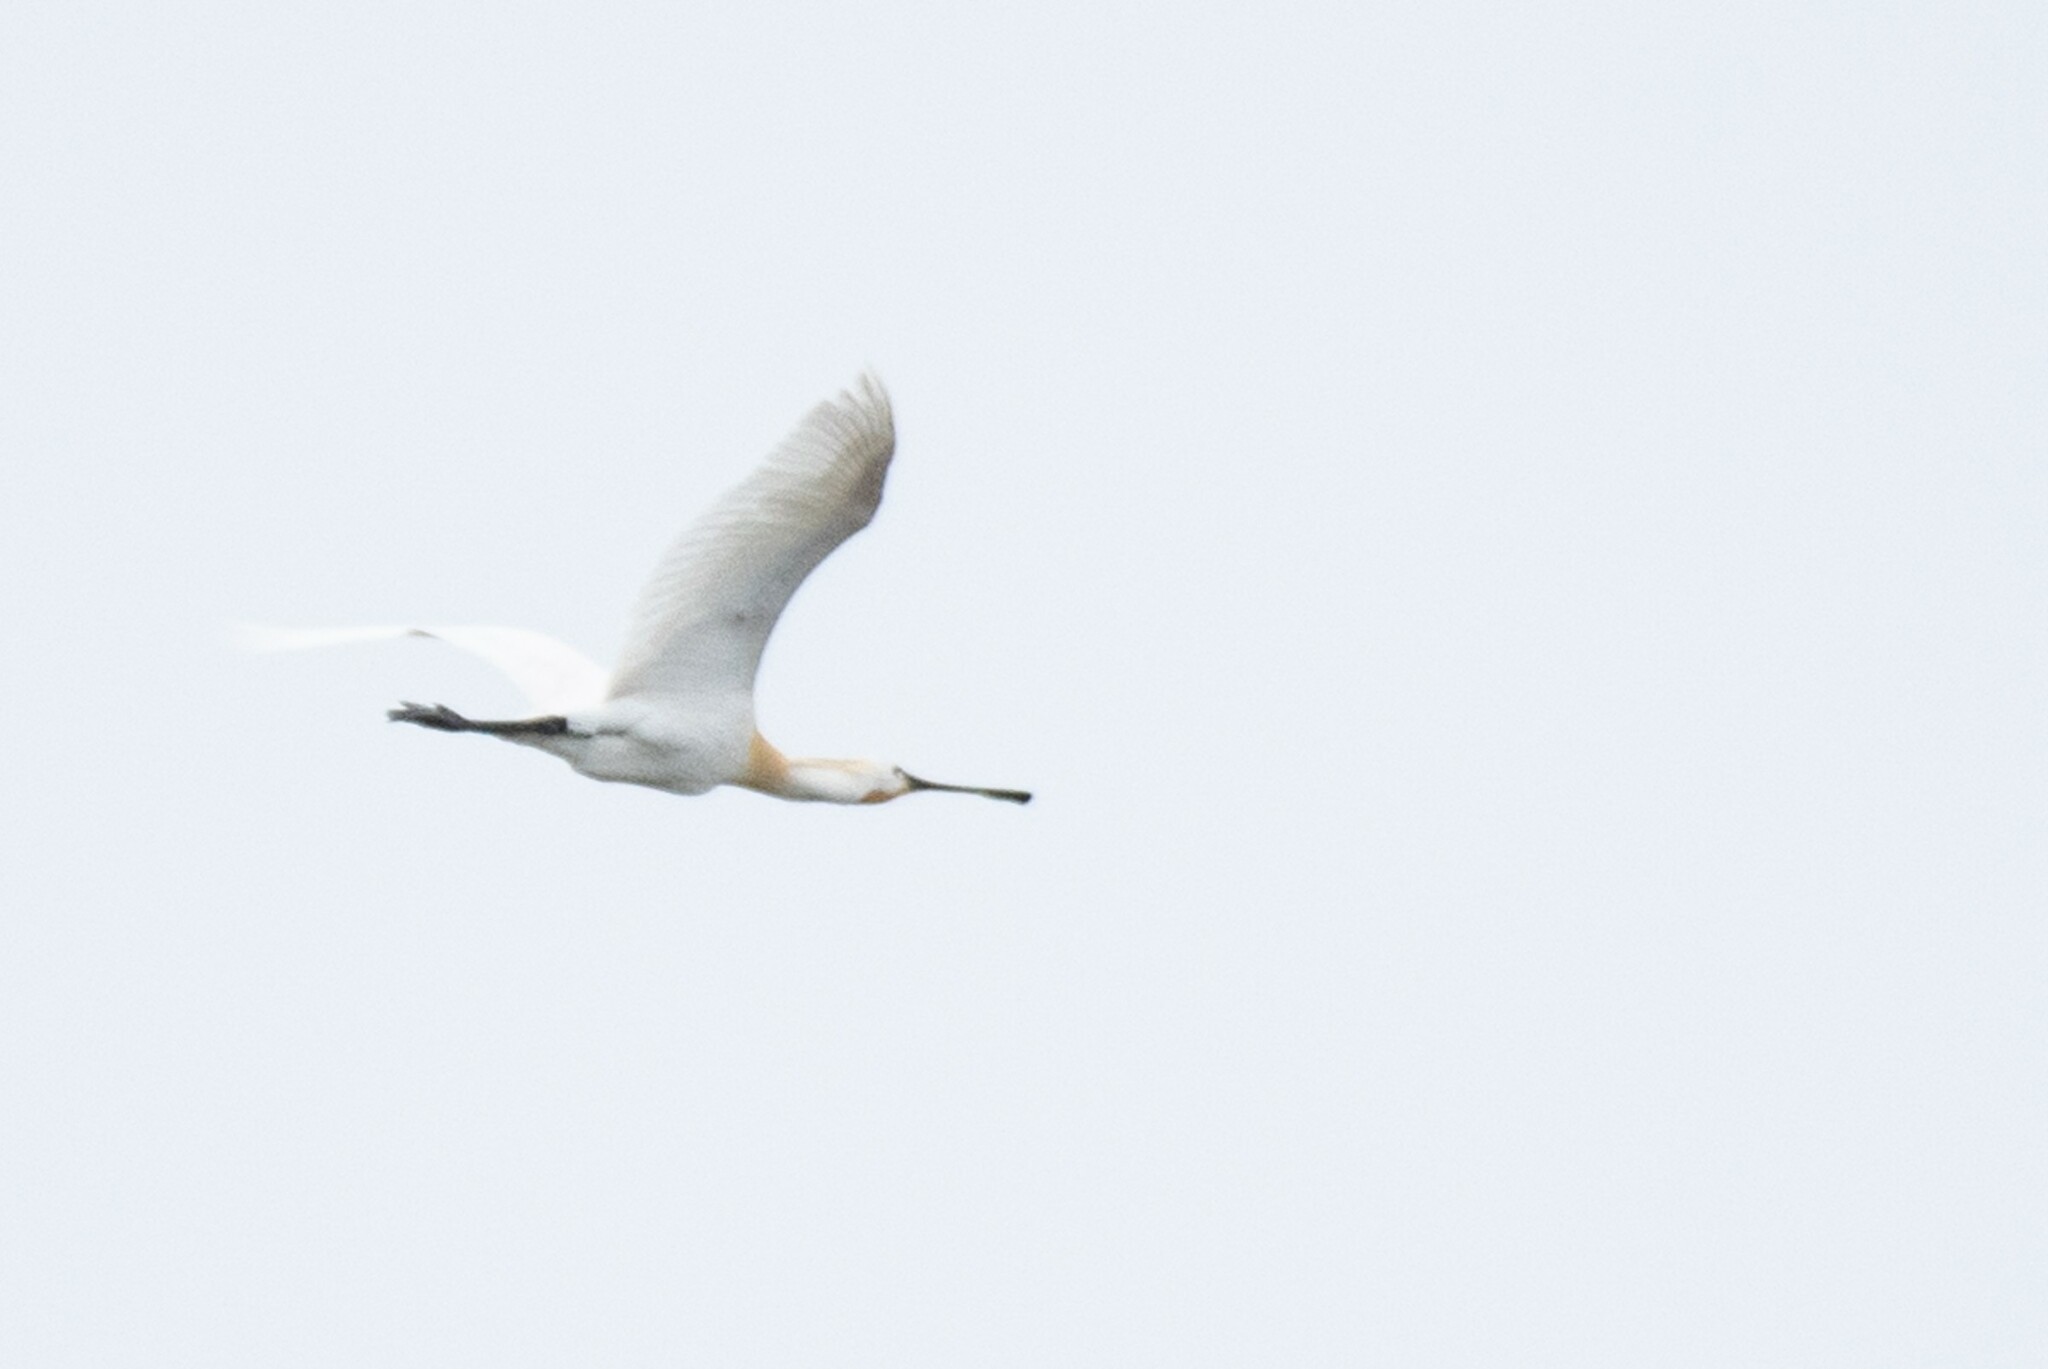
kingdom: Animalia
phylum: Chordata
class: Aves
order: Pelecaniformes
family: Threskiornithidae
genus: Platalea
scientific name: Platalea leucorodia
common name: Eurasian spoonbill
